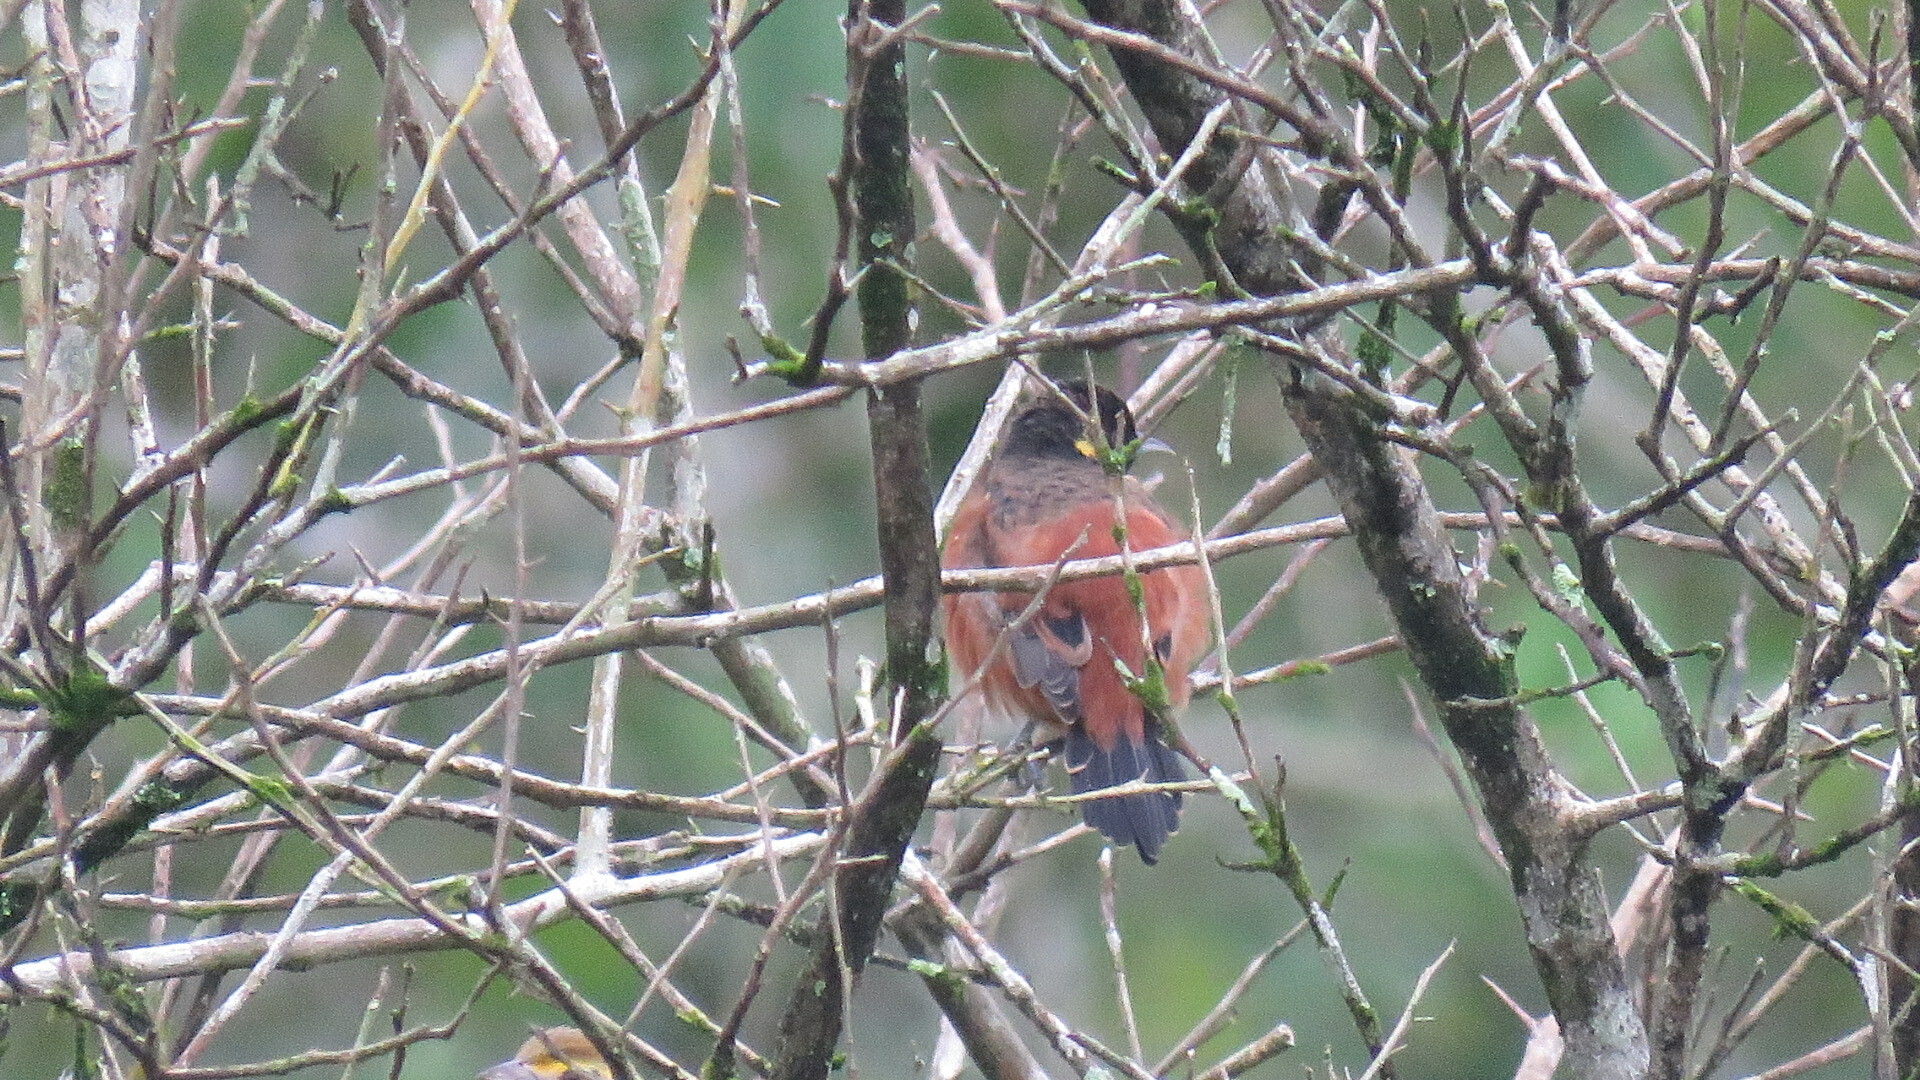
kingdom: Animalia
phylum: Chordata
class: Aves
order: Passeriformes
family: Icteridae
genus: Icterus
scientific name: Icterus spurius
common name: Orchard oriole
